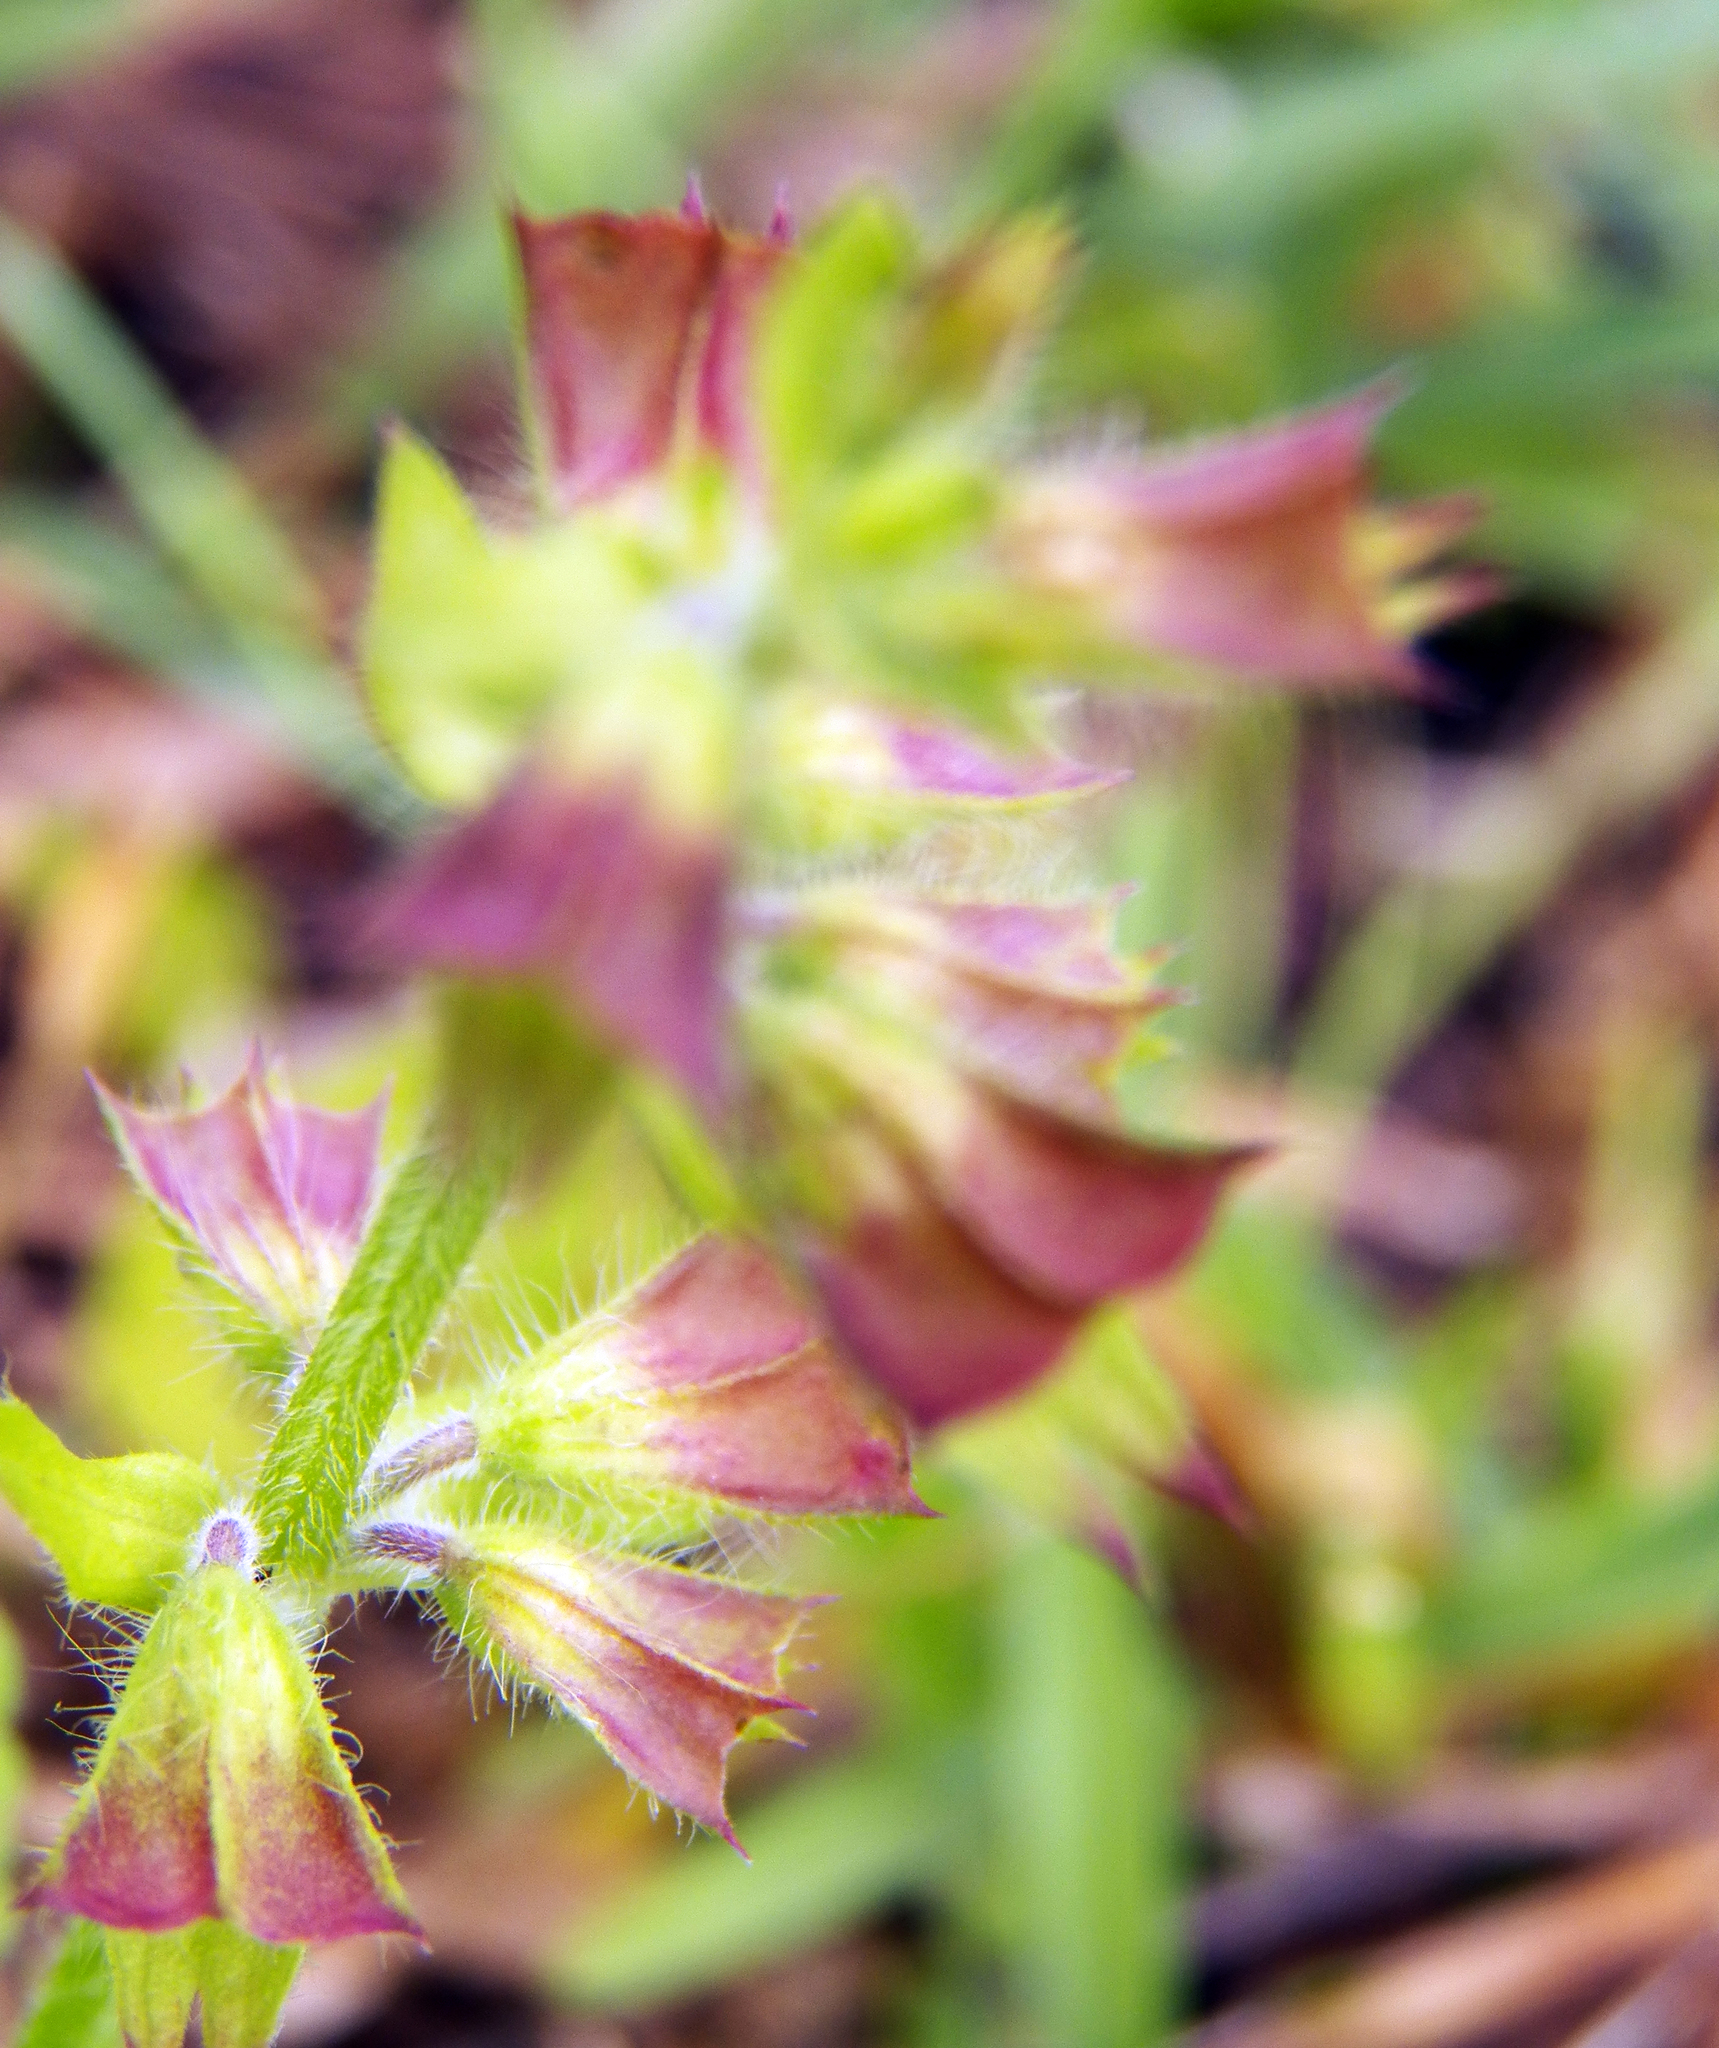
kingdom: Plantae
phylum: Tracheophyta
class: Magnoliopsida
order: Lamiales
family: Lamiaceae
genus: Salvia
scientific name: Salvia lyrata
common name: Cancerweed
